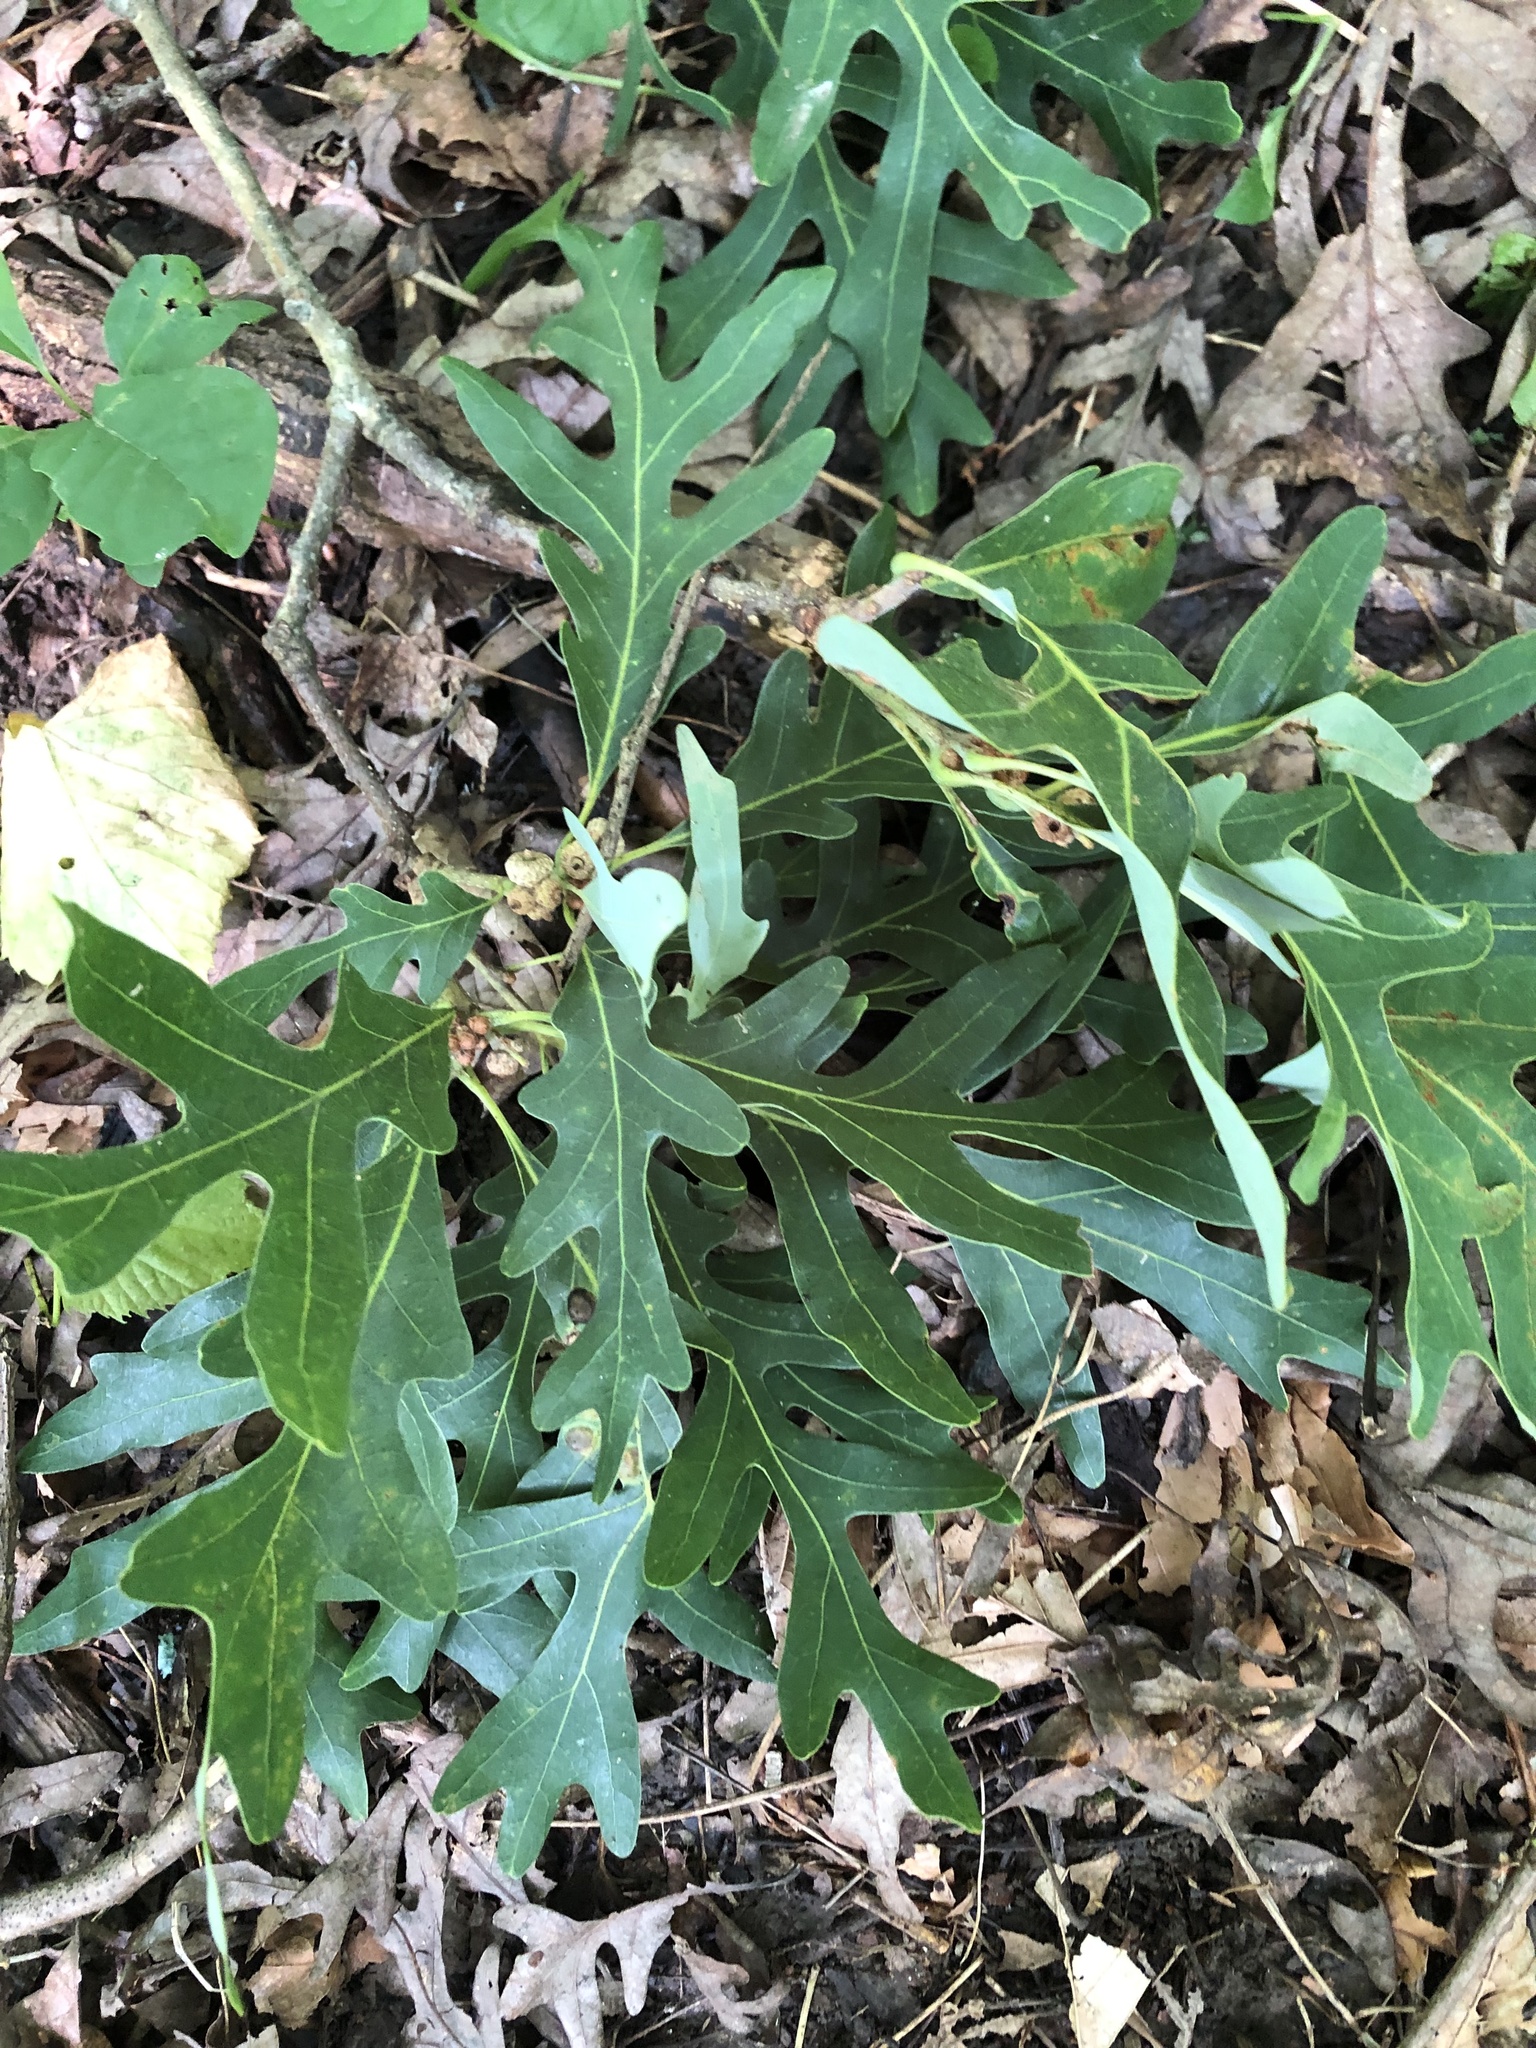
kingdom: Plantae
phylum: Tracheophyta
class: Magnoliopsida
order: Fagales
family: Fagaceae
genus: Quercus
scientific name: Quercus alba
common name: White oak
